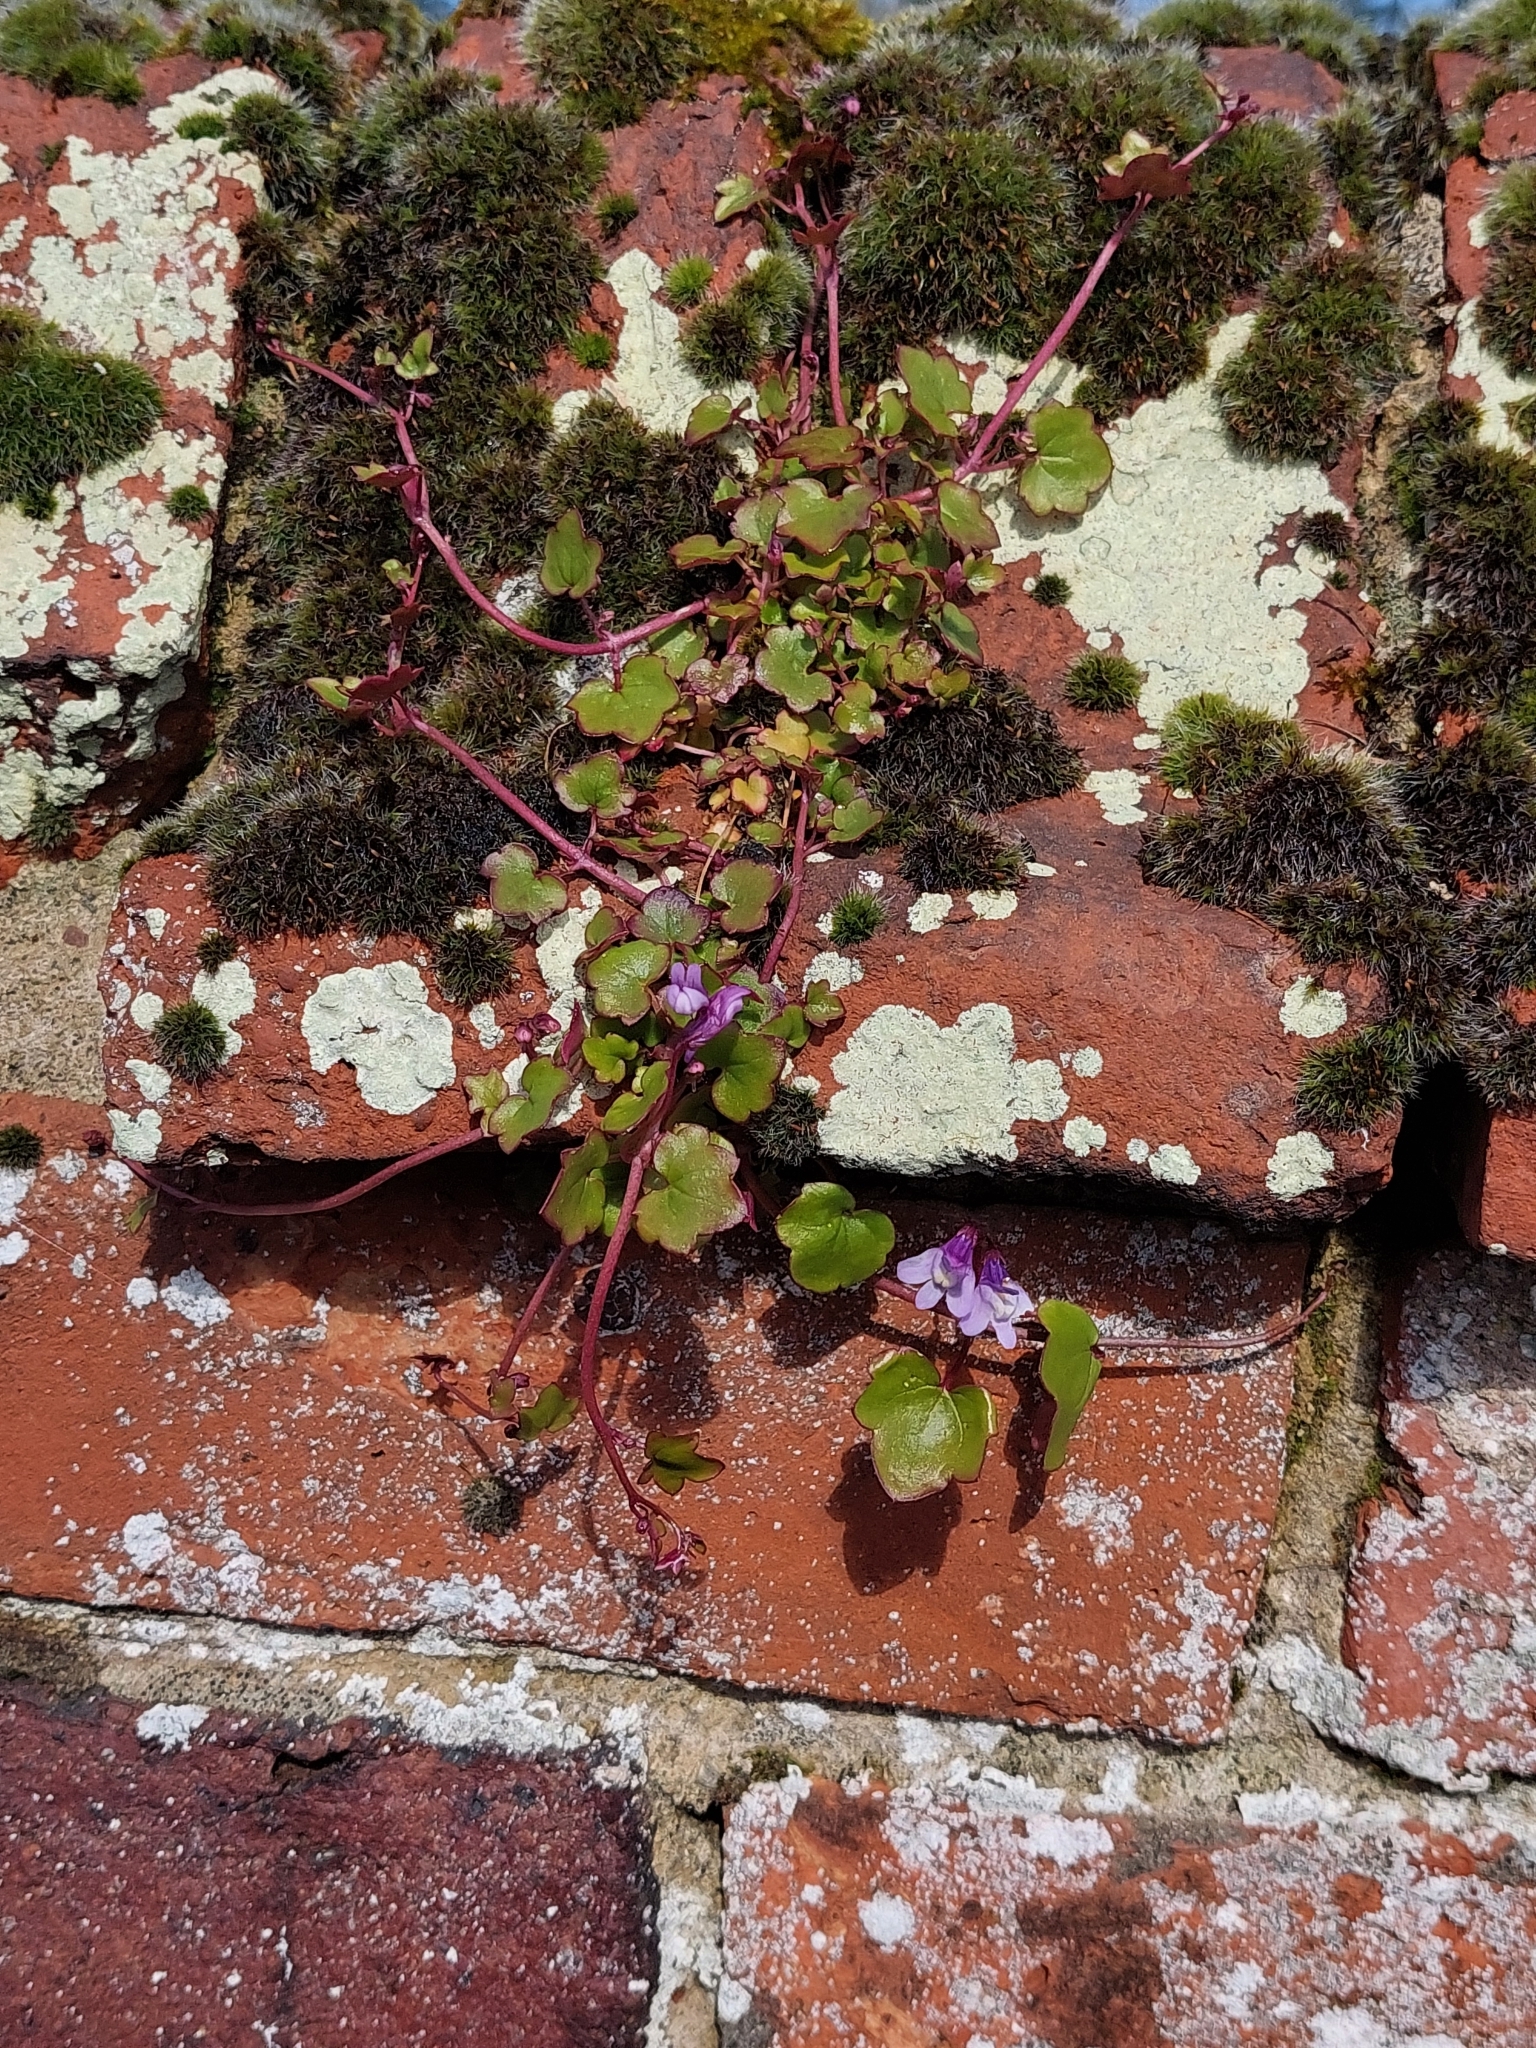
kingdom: Plantae
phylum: Tracheophyta
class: Magnoliopsida
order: Lamiales
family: Plantaginaceae
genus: Cymbalaria
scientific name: Cymbalaria muralis
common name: Ivy-leaved toadflax
